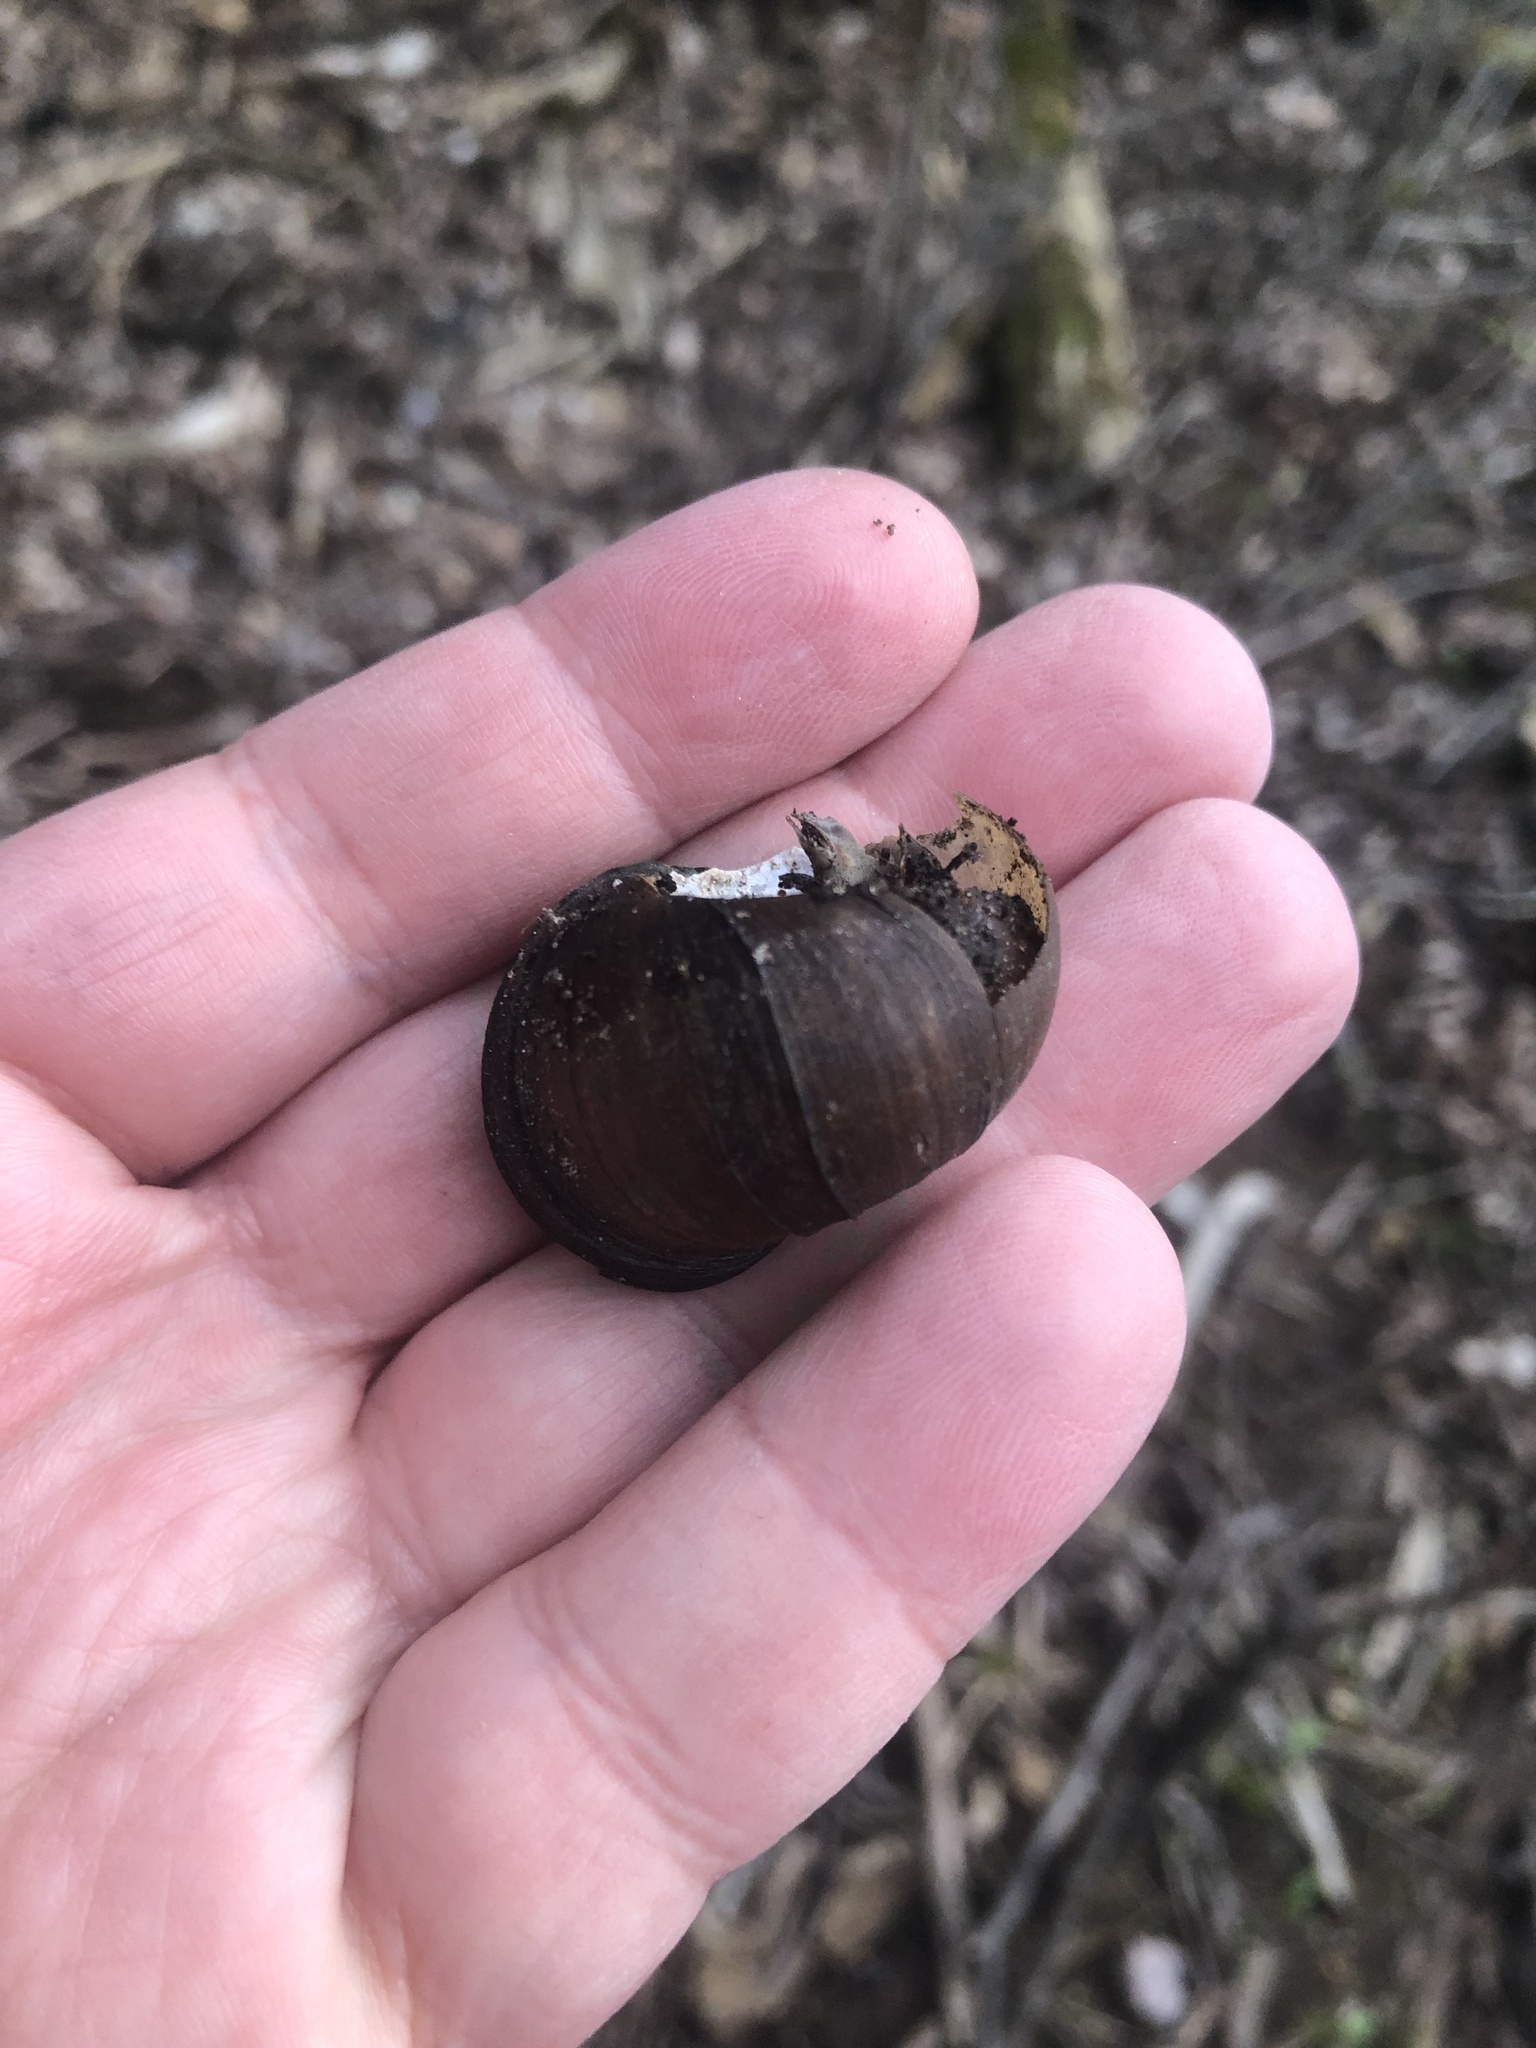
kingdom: Animalia
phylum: Mollusca
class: Gastropoda
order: Architaenioglossa
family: Viviparidae
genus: Cipangopaludina
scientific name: Cipangopaludina chinensis
